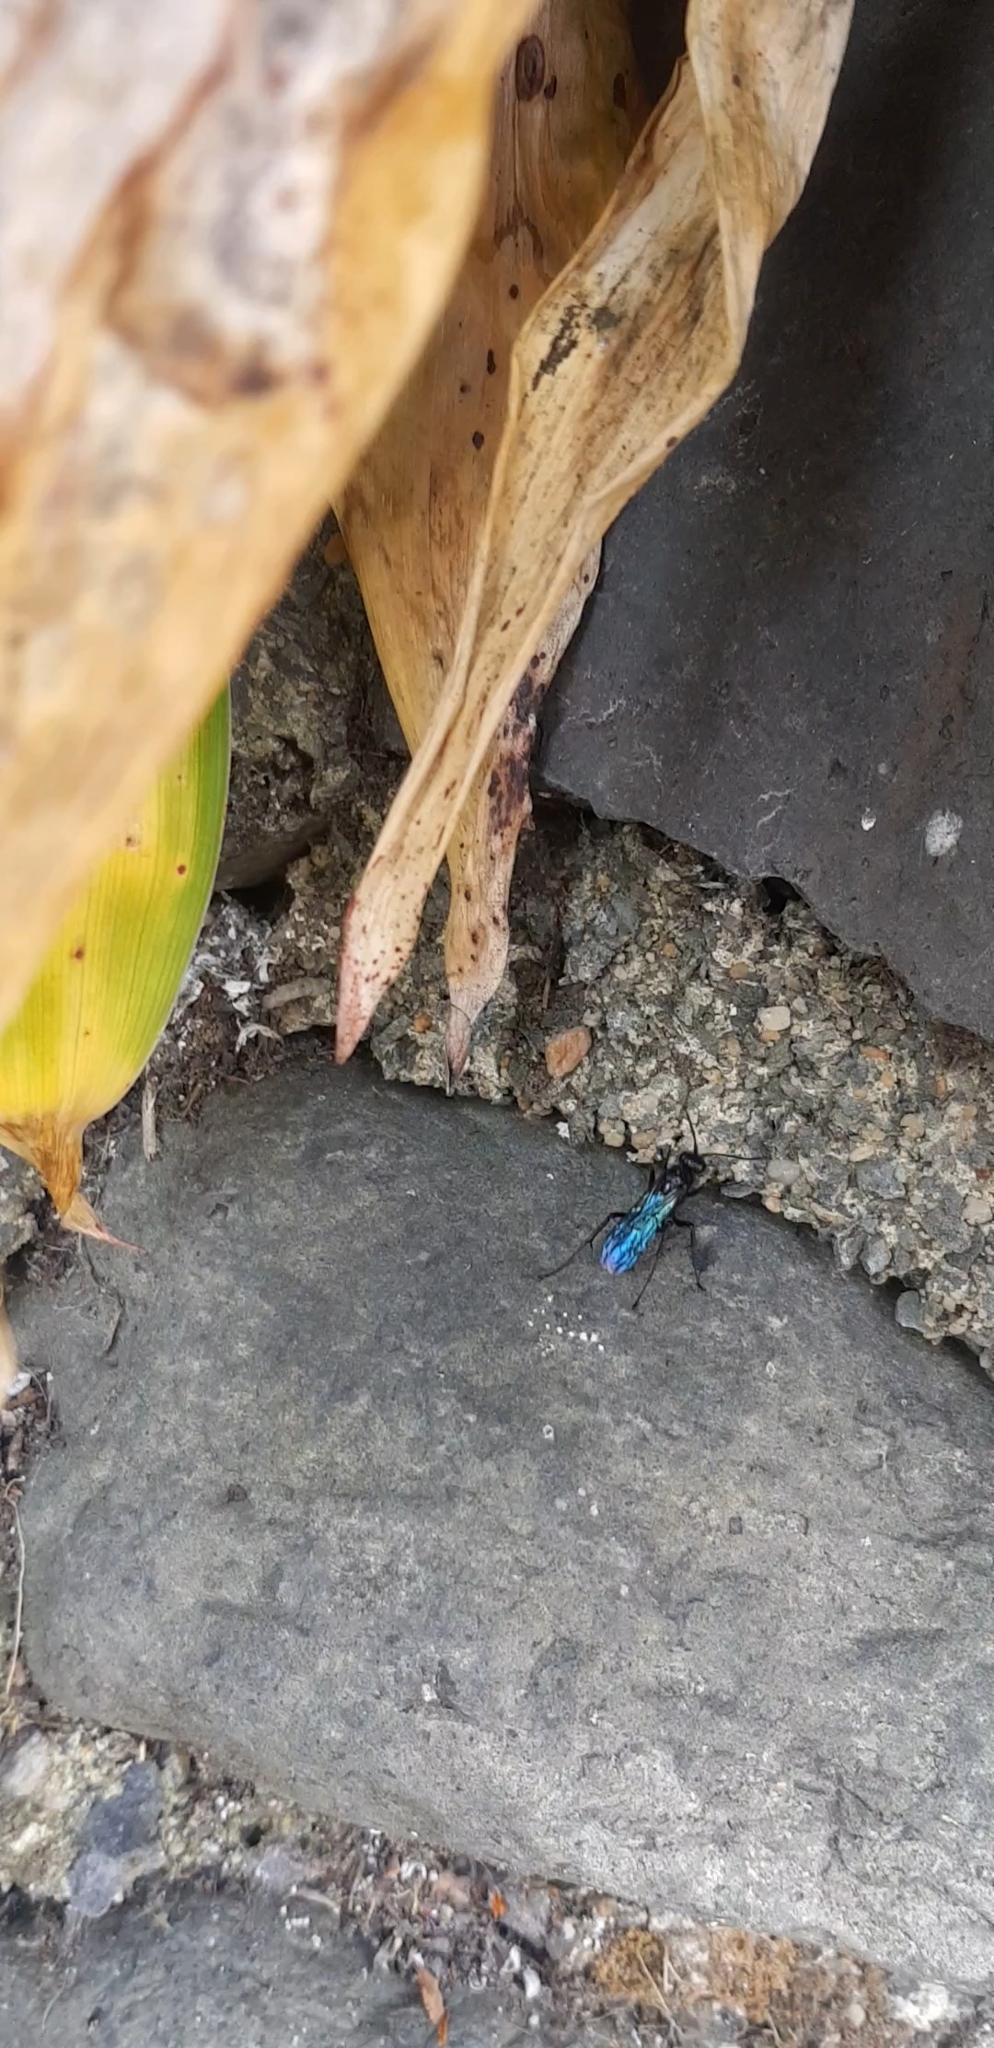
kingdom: Animalia
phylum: Arthropoda
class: Insecta
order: Hymenoptera
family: Pompilidae
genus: Priocnemis
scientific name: Priocnemis monachus
